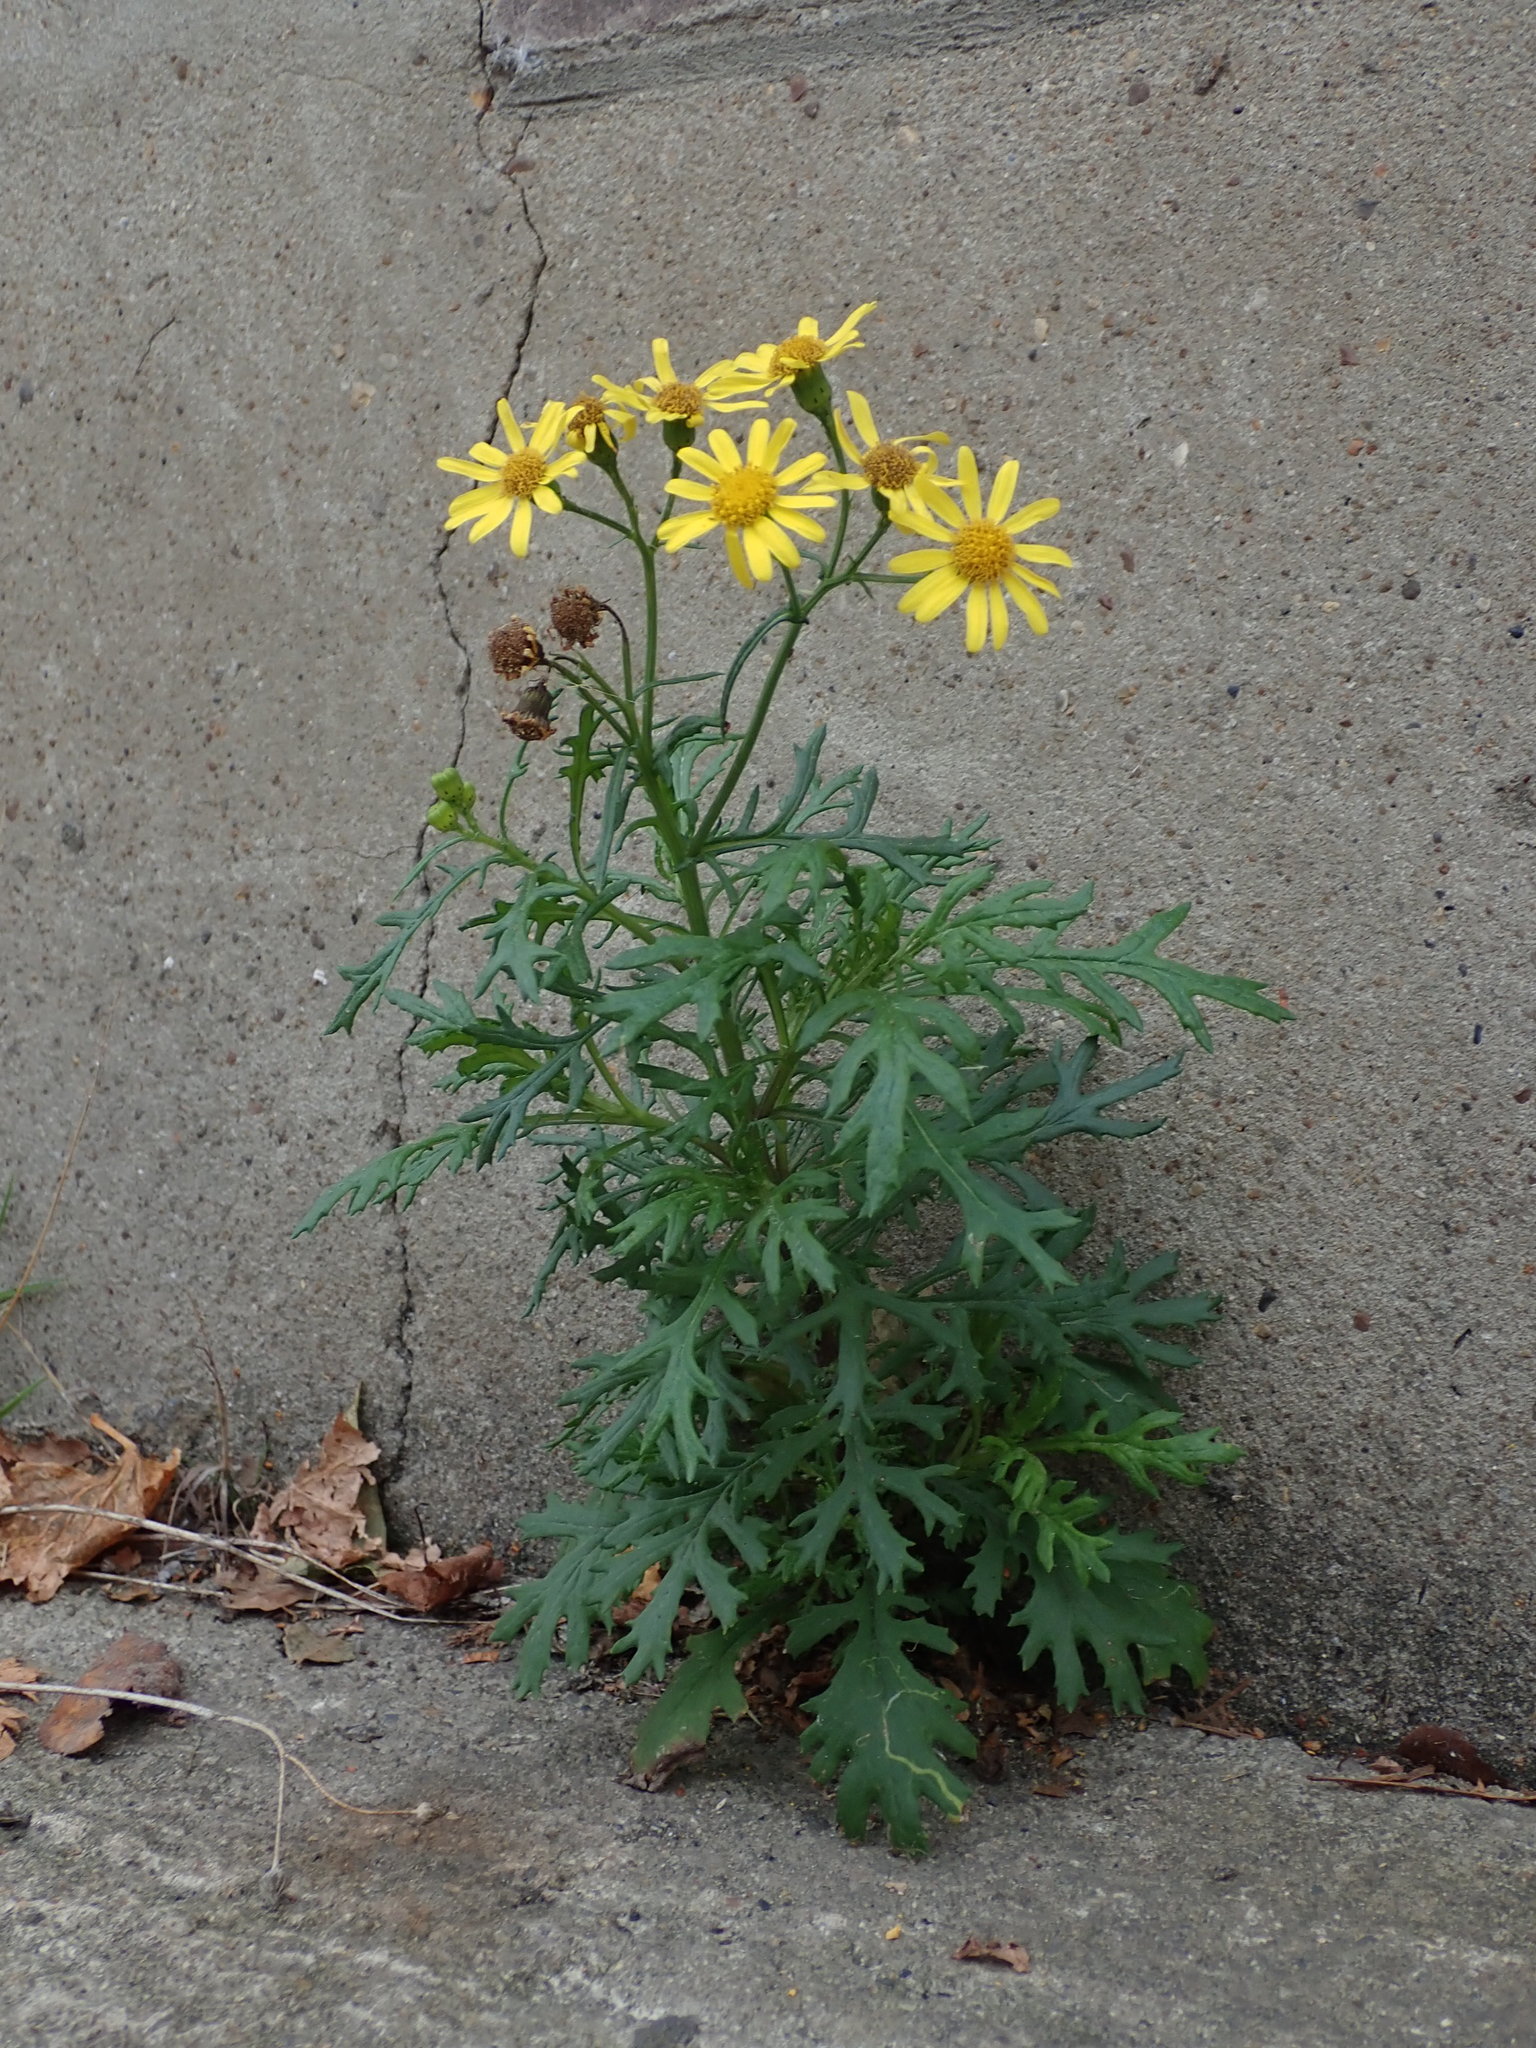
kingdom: Plantae
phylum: Tracheophyta
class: Magnoliopsida
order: Asterales
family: Asteraceae
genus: Senecio
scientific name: Senecio squalidus
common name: Oxford ragwort
